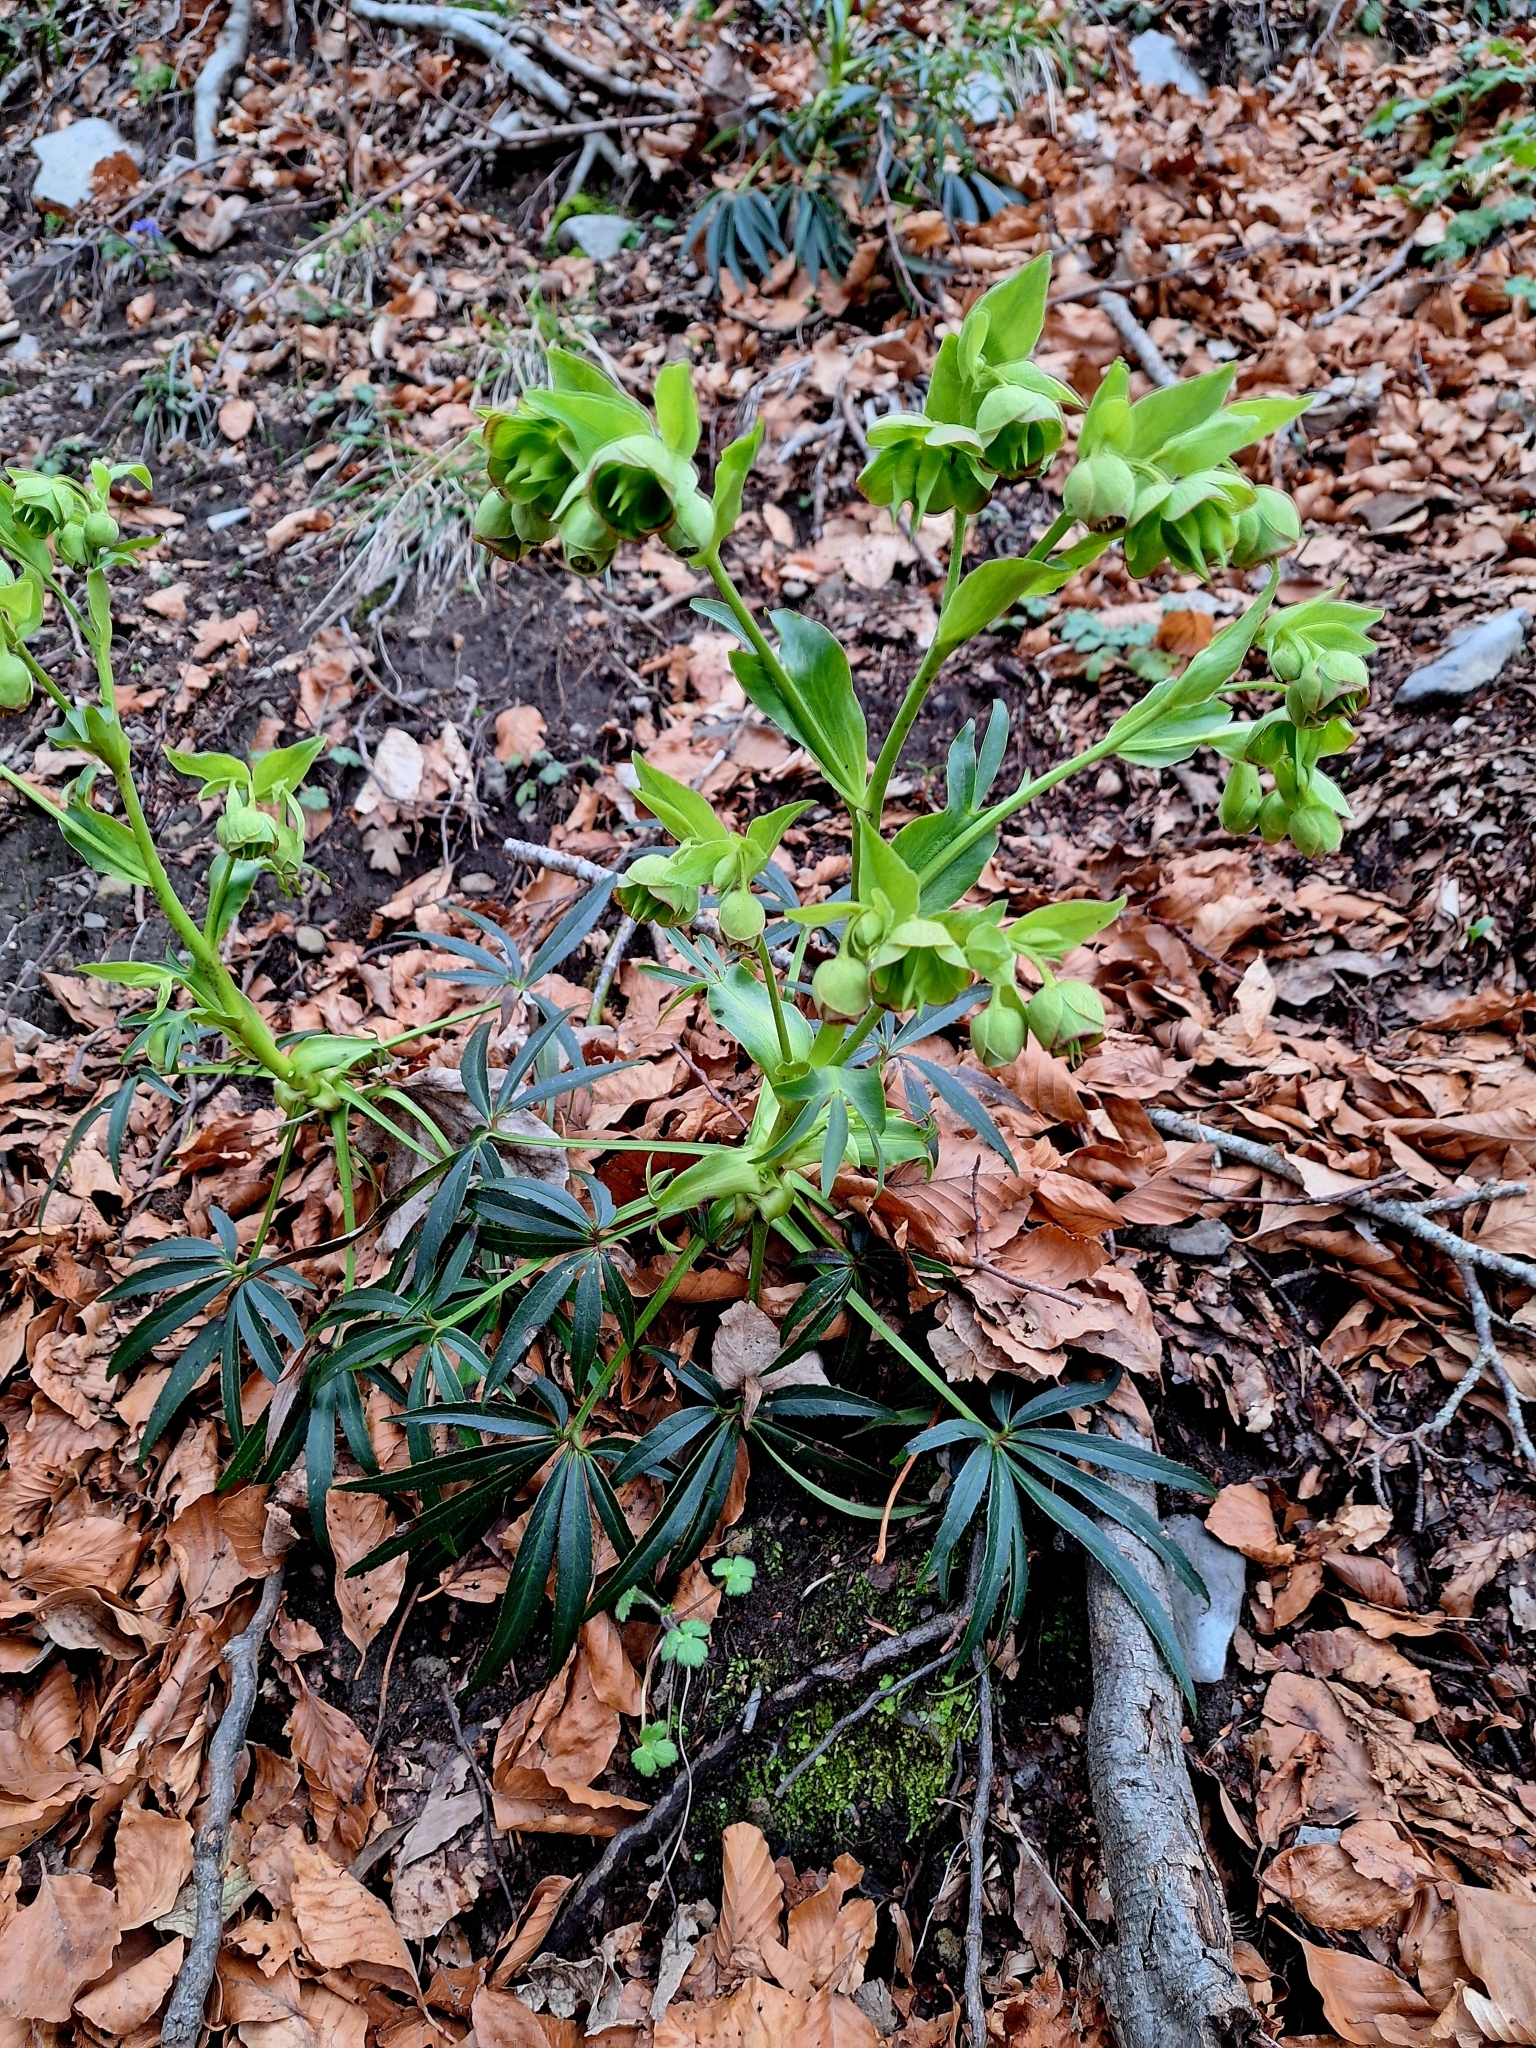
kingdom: Plantae
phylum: Tracheophyta
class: Magnoliopsida
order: Ranunculales
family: Ranunculaceae
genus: Helleborus
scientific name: Helleborus foetidus
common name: Stinking hellebore
